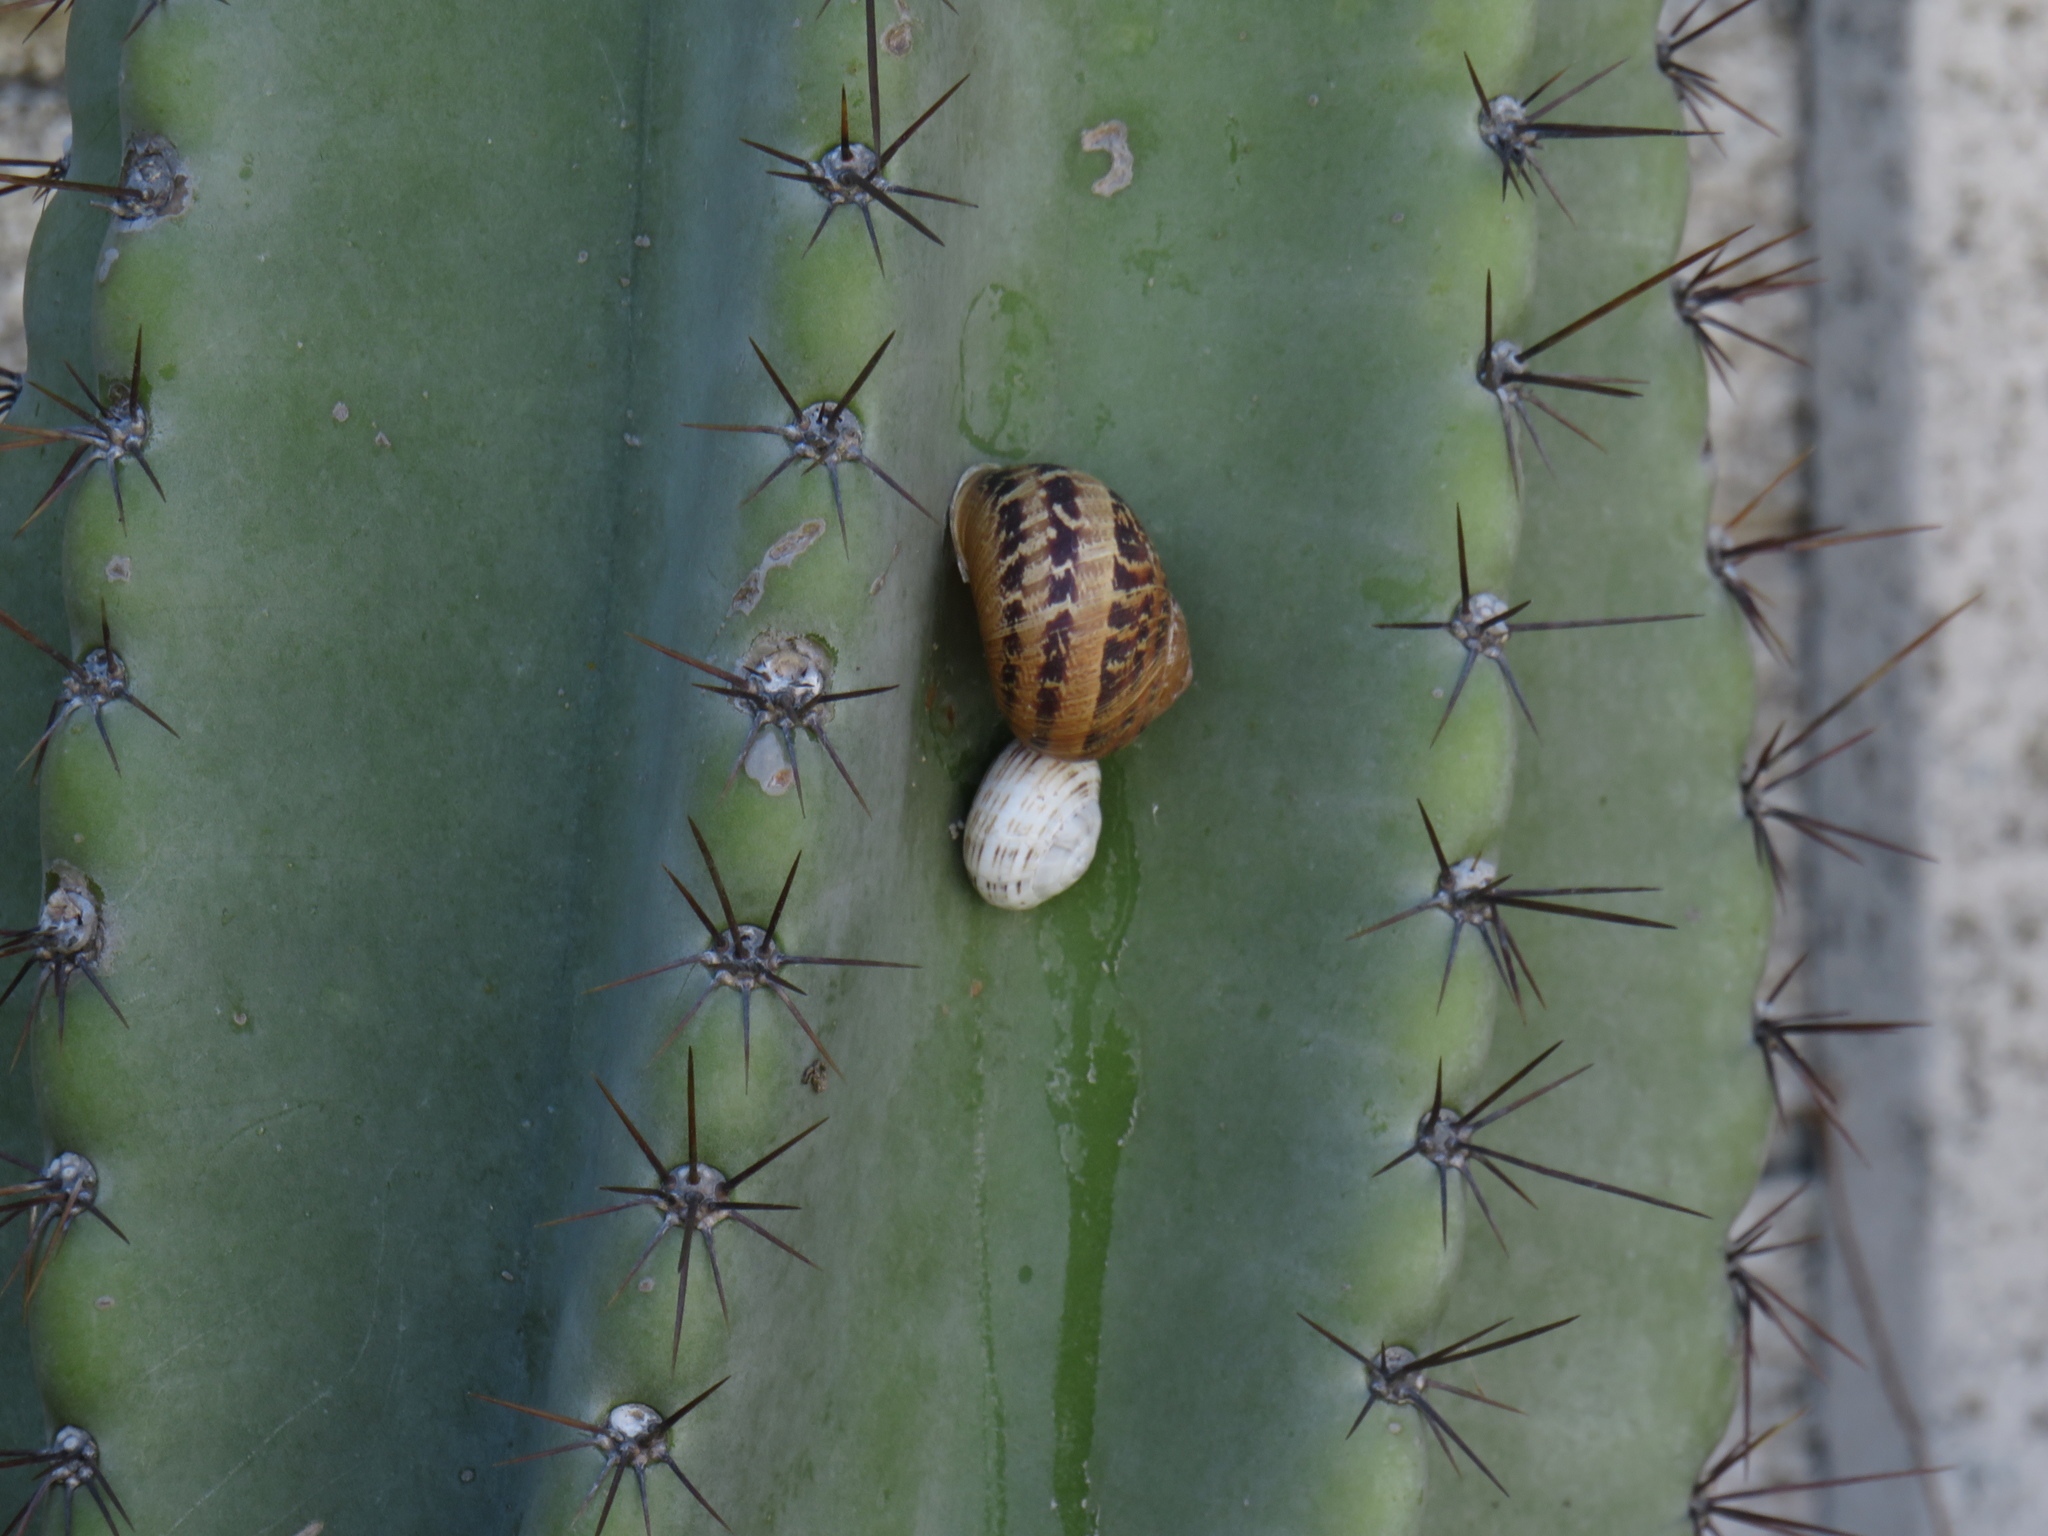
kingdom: Animalia
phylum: Mollusca
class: Gastropoda
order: Stylommatophora
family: Helicidae
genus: Theba
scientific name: Theba pisana
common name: White snail
